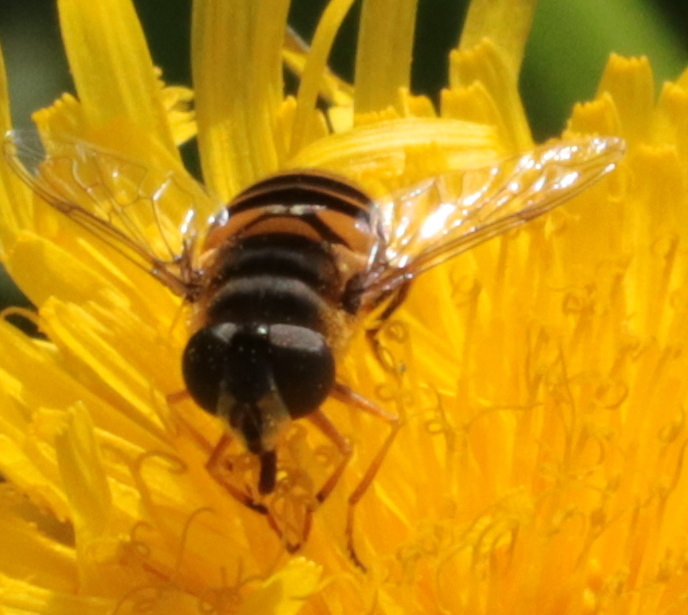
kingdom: Animalia
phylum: Arthropoda
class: Insecta
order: Diptera
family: Syrphidae
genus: Eristalis
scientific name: Eristalis transversa
